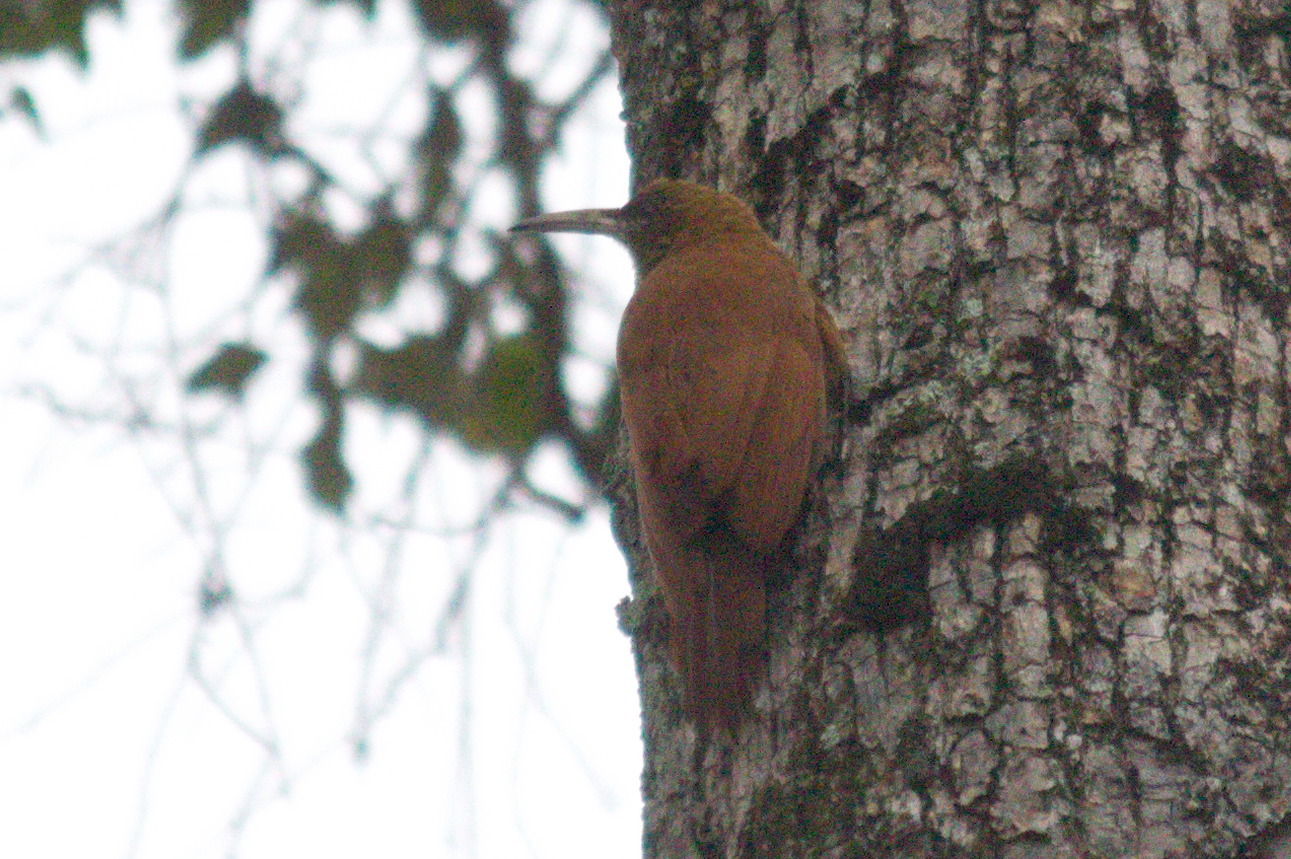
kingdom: Animalia
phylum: Chordata
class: Aves
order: Passeriformes
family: Furnariidae
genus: Xiphocolaptes
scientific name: Xiphocolaptes major
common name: Great rufous woodcreeper
